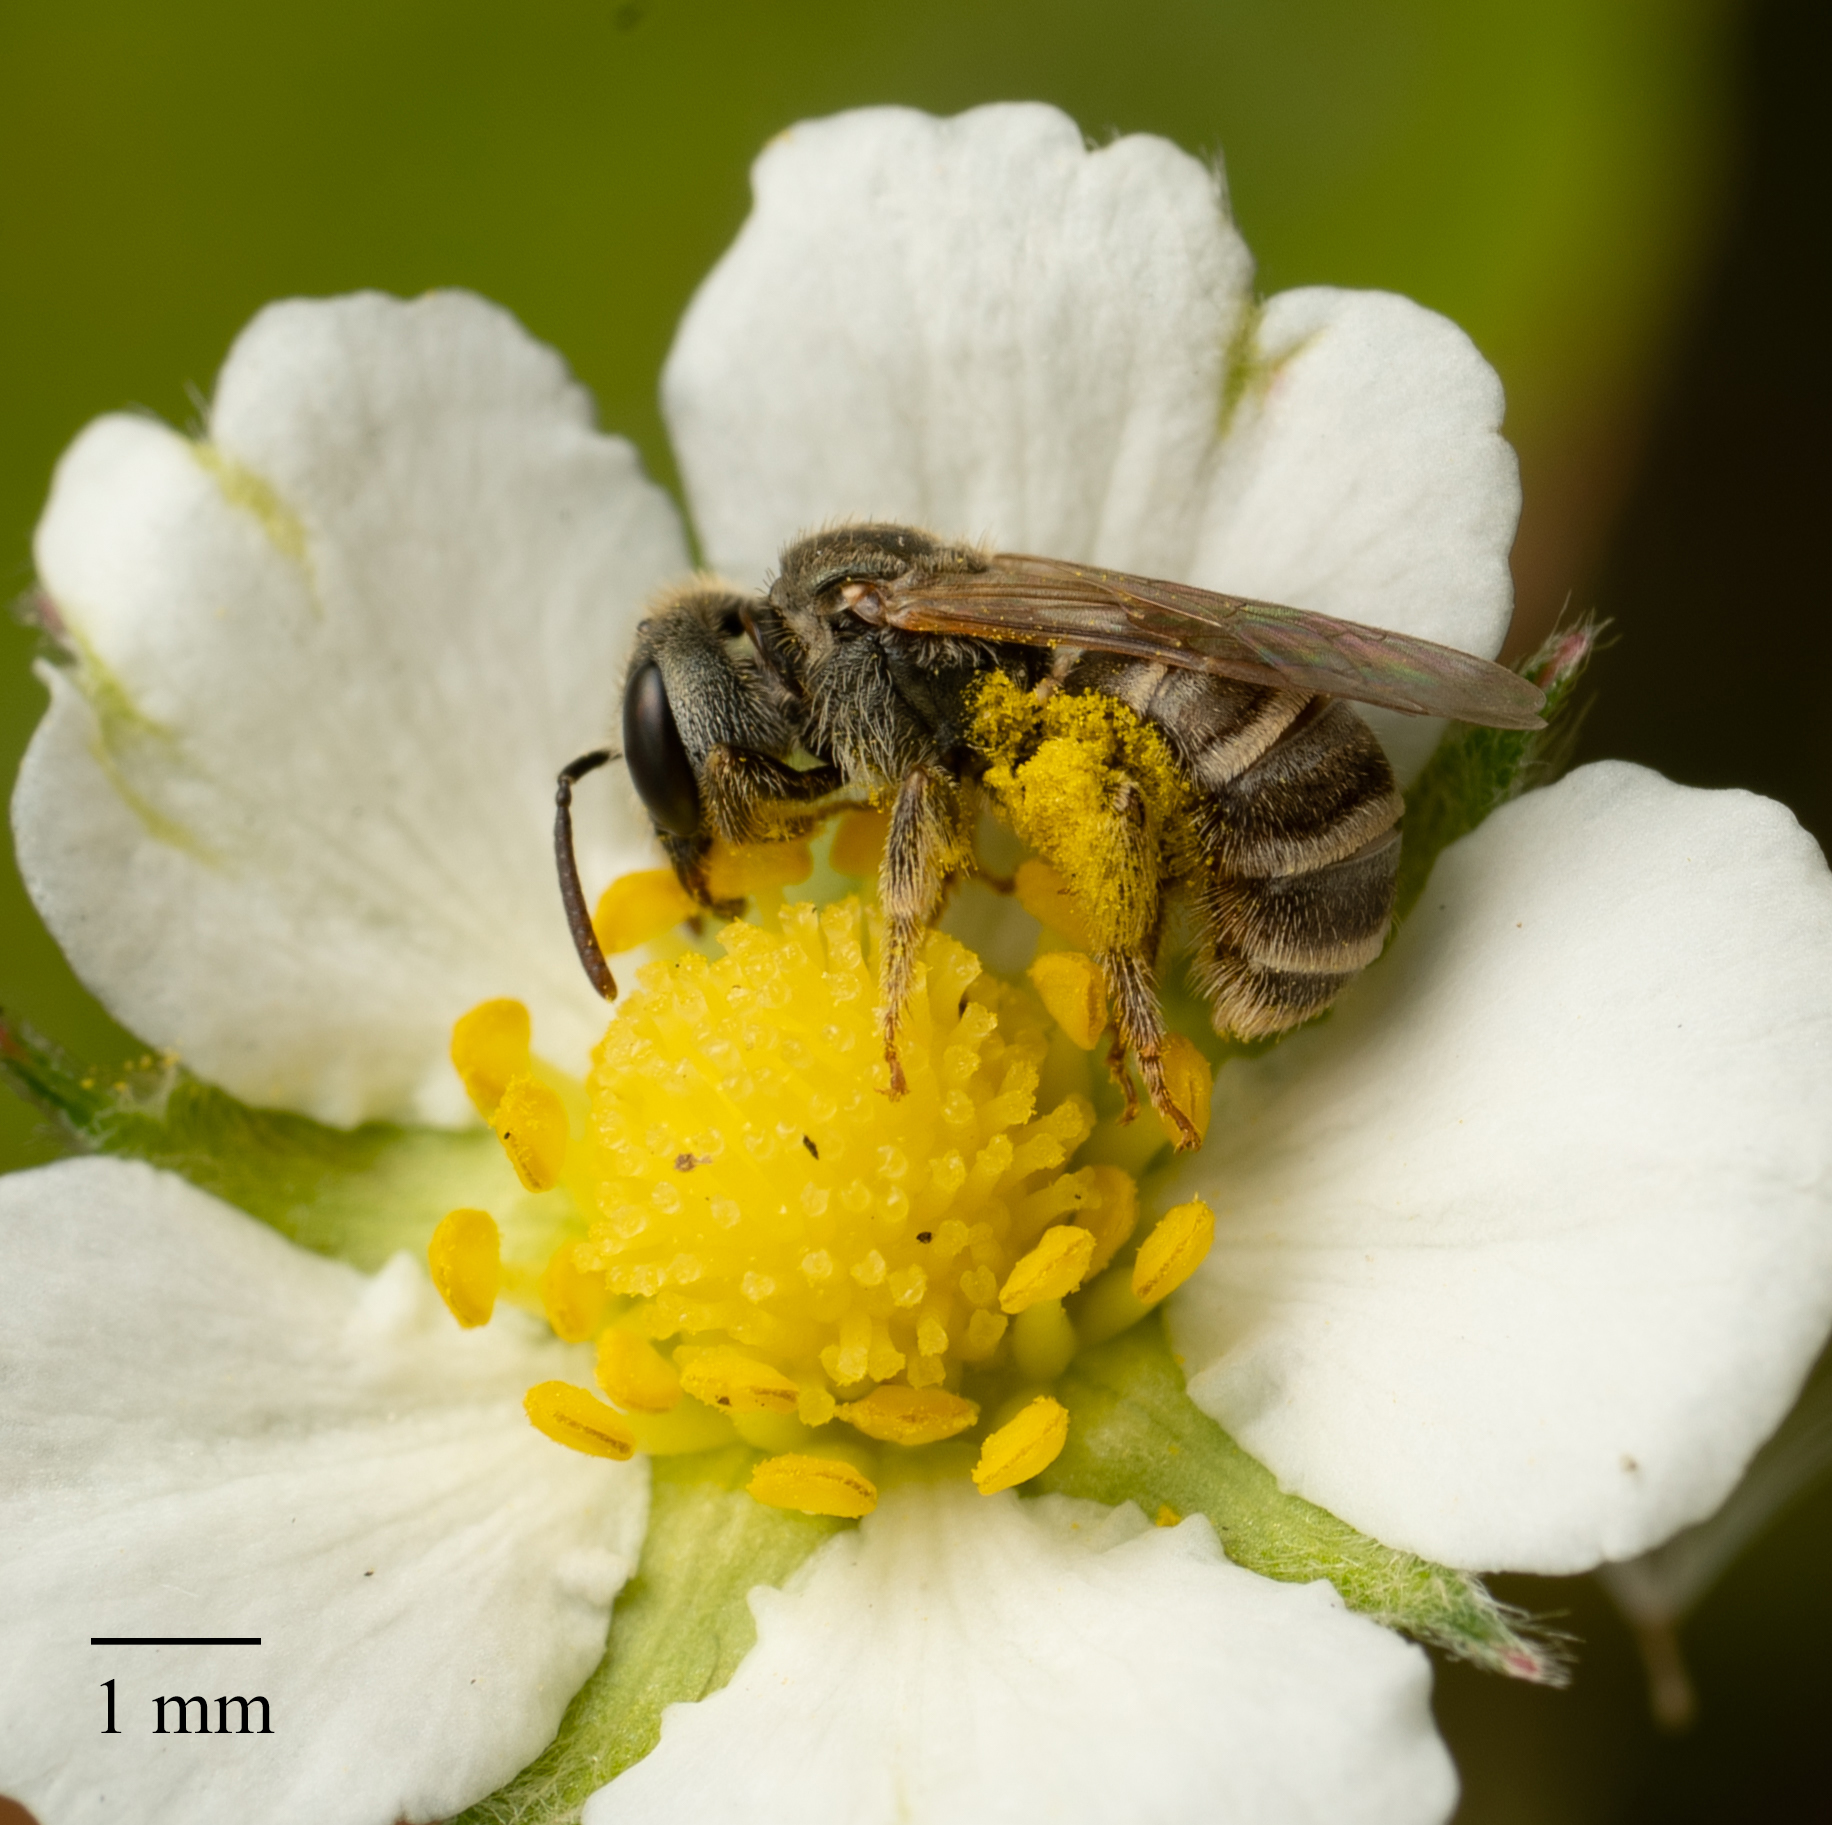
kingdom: Animalia
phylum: Arthropoda
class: Insecta
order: Hymenoptera
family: Halictidae
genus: Halictus
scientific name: Halictus tripartitus
